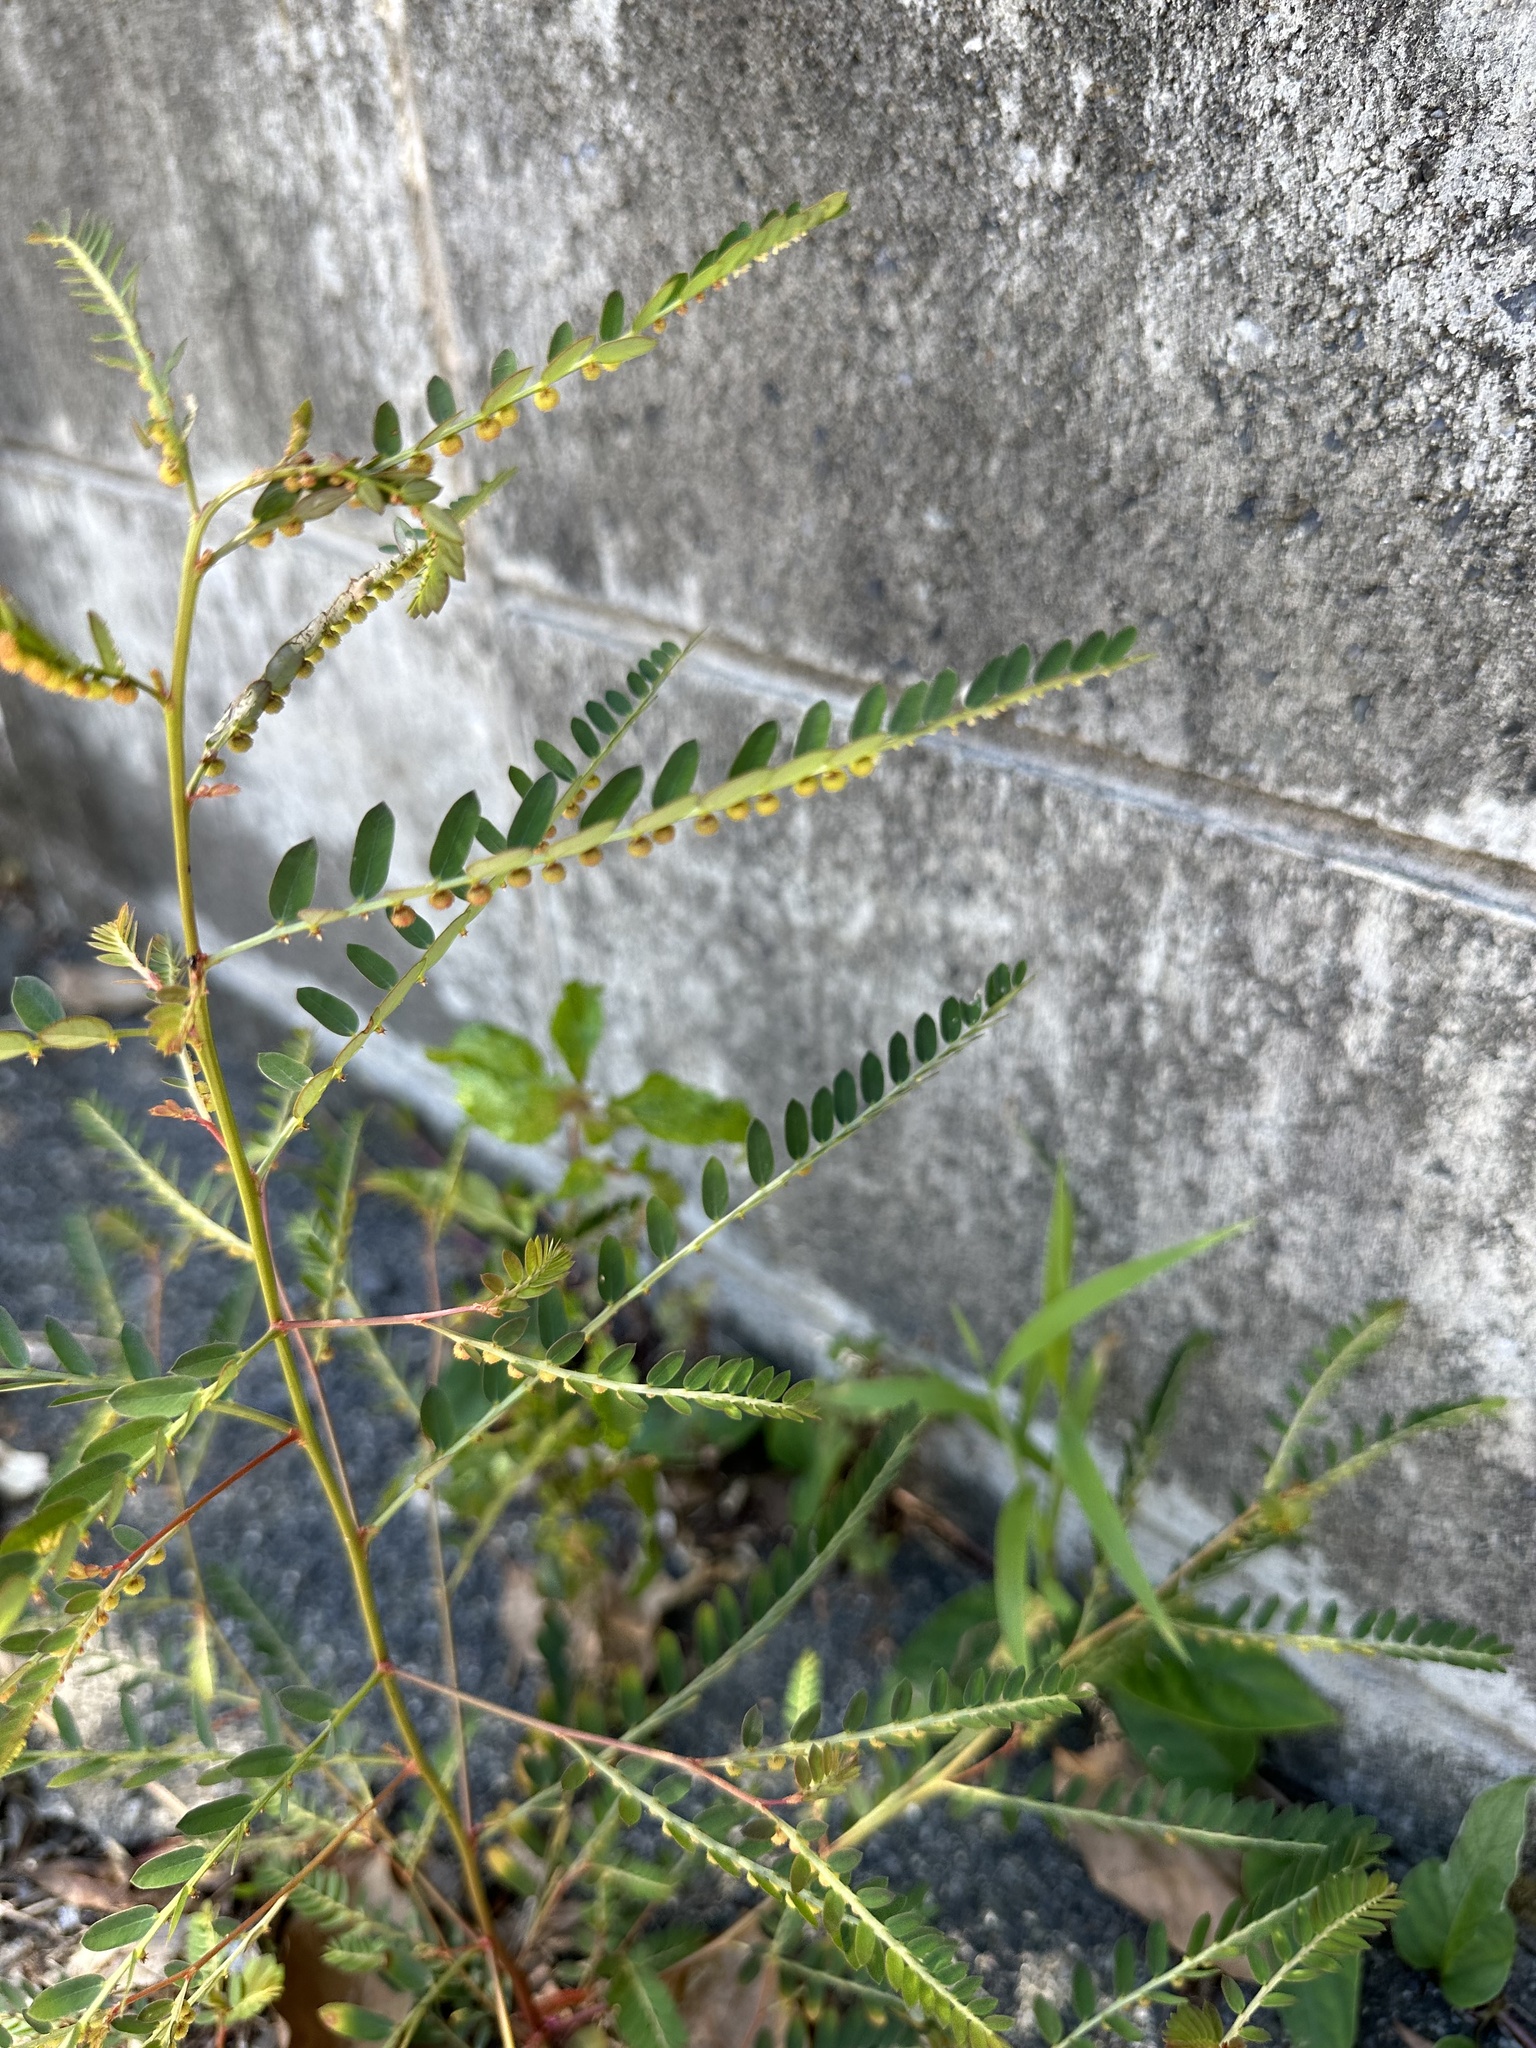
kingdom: Plantae
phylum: Tracheophyta
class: Magnoliopsida
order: Malpighiales
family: Phyllanthaceae
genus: Phyllanthus
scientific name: Phyllanthus urinaria
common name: Chamber bitter
